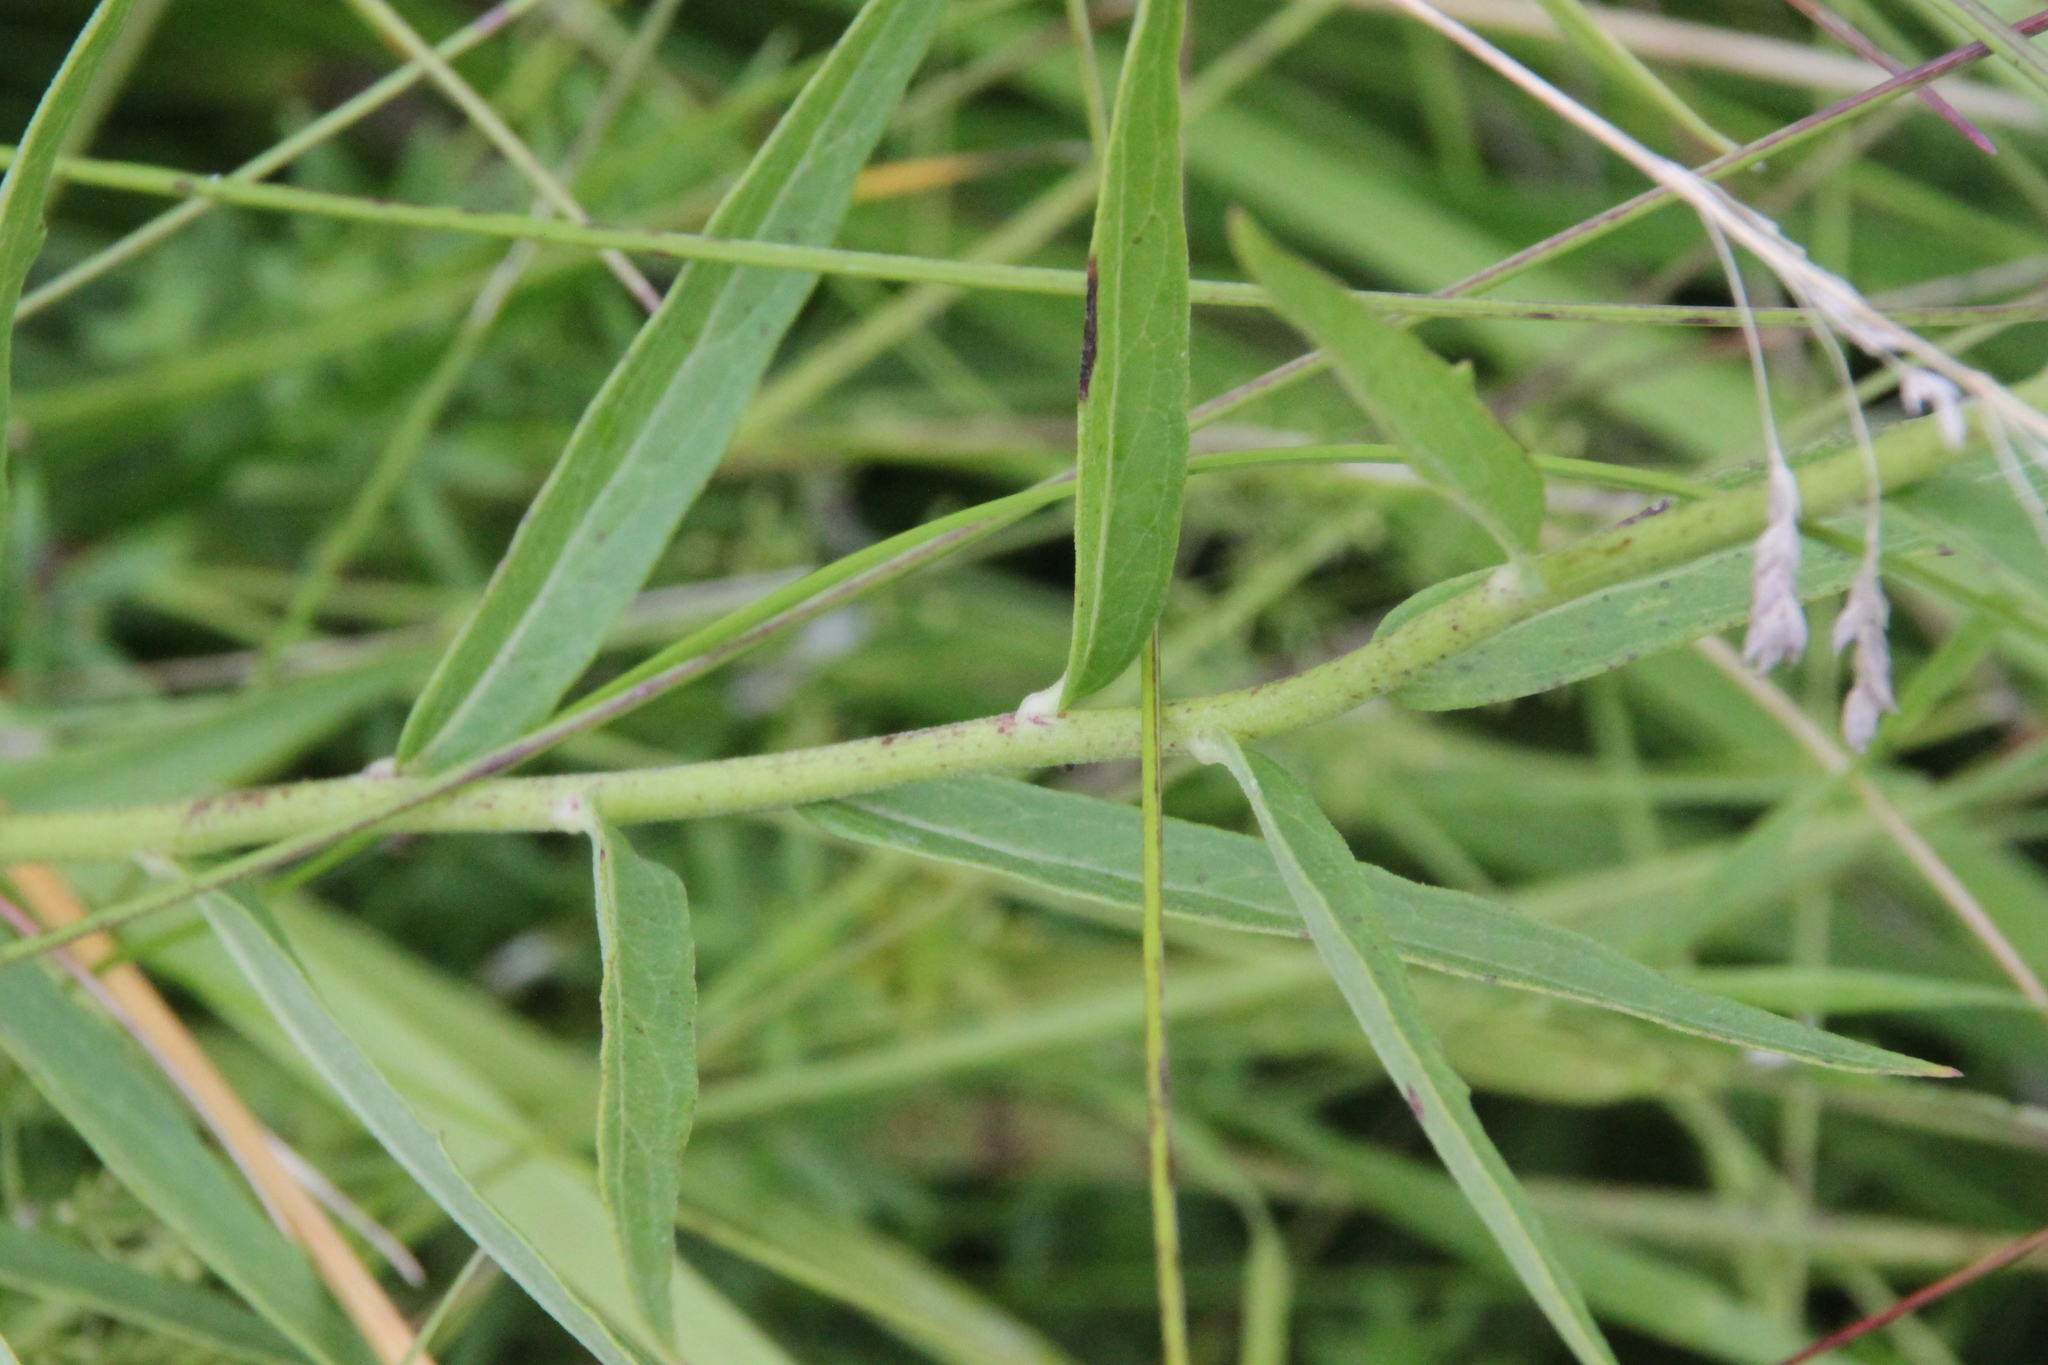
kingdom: Plantae
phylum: Tracheophyta
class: Magnoliopsida
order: Asterales
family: Asteraceae
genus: Hieracium
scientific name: Hieracium umbellatum
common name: Northern hawkweed
